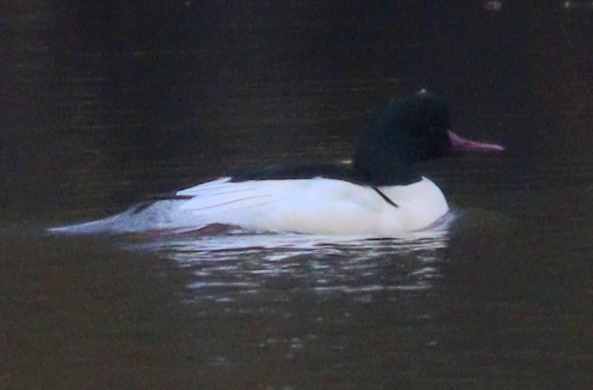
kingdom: Animalia
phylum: Chordata
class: Aves
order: Anseriformes
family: Anatidae
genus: Mergus
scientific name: Mergus merganser
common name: Common merganser
